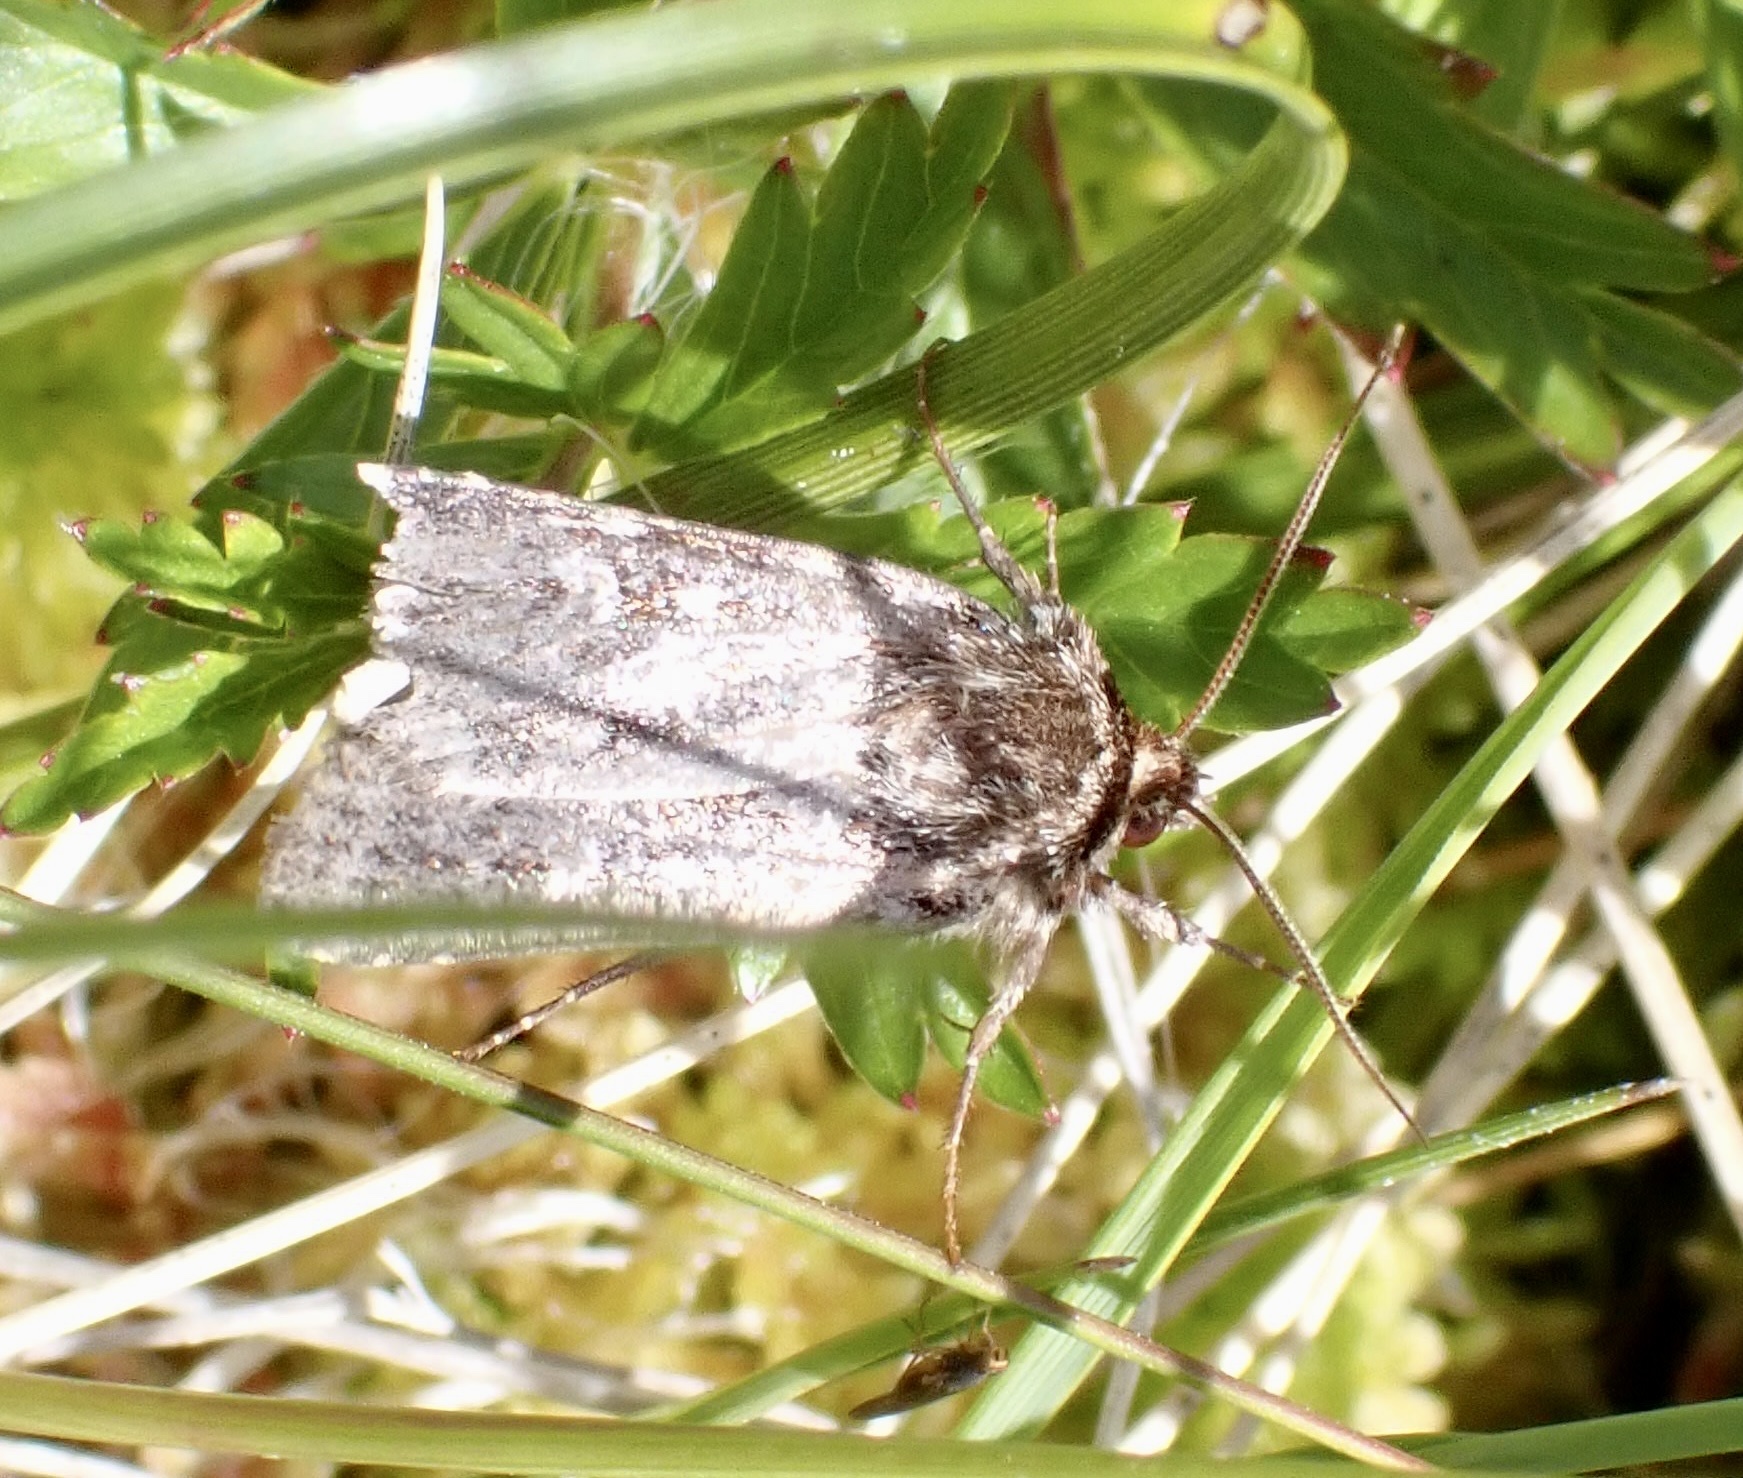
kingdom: Animalia
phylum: Arthropoda
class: Insecta
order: Lepidoptera
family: Noctuidae
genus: Lycophotia
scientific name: Lycophotia porphyrea
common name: True lover's knot
